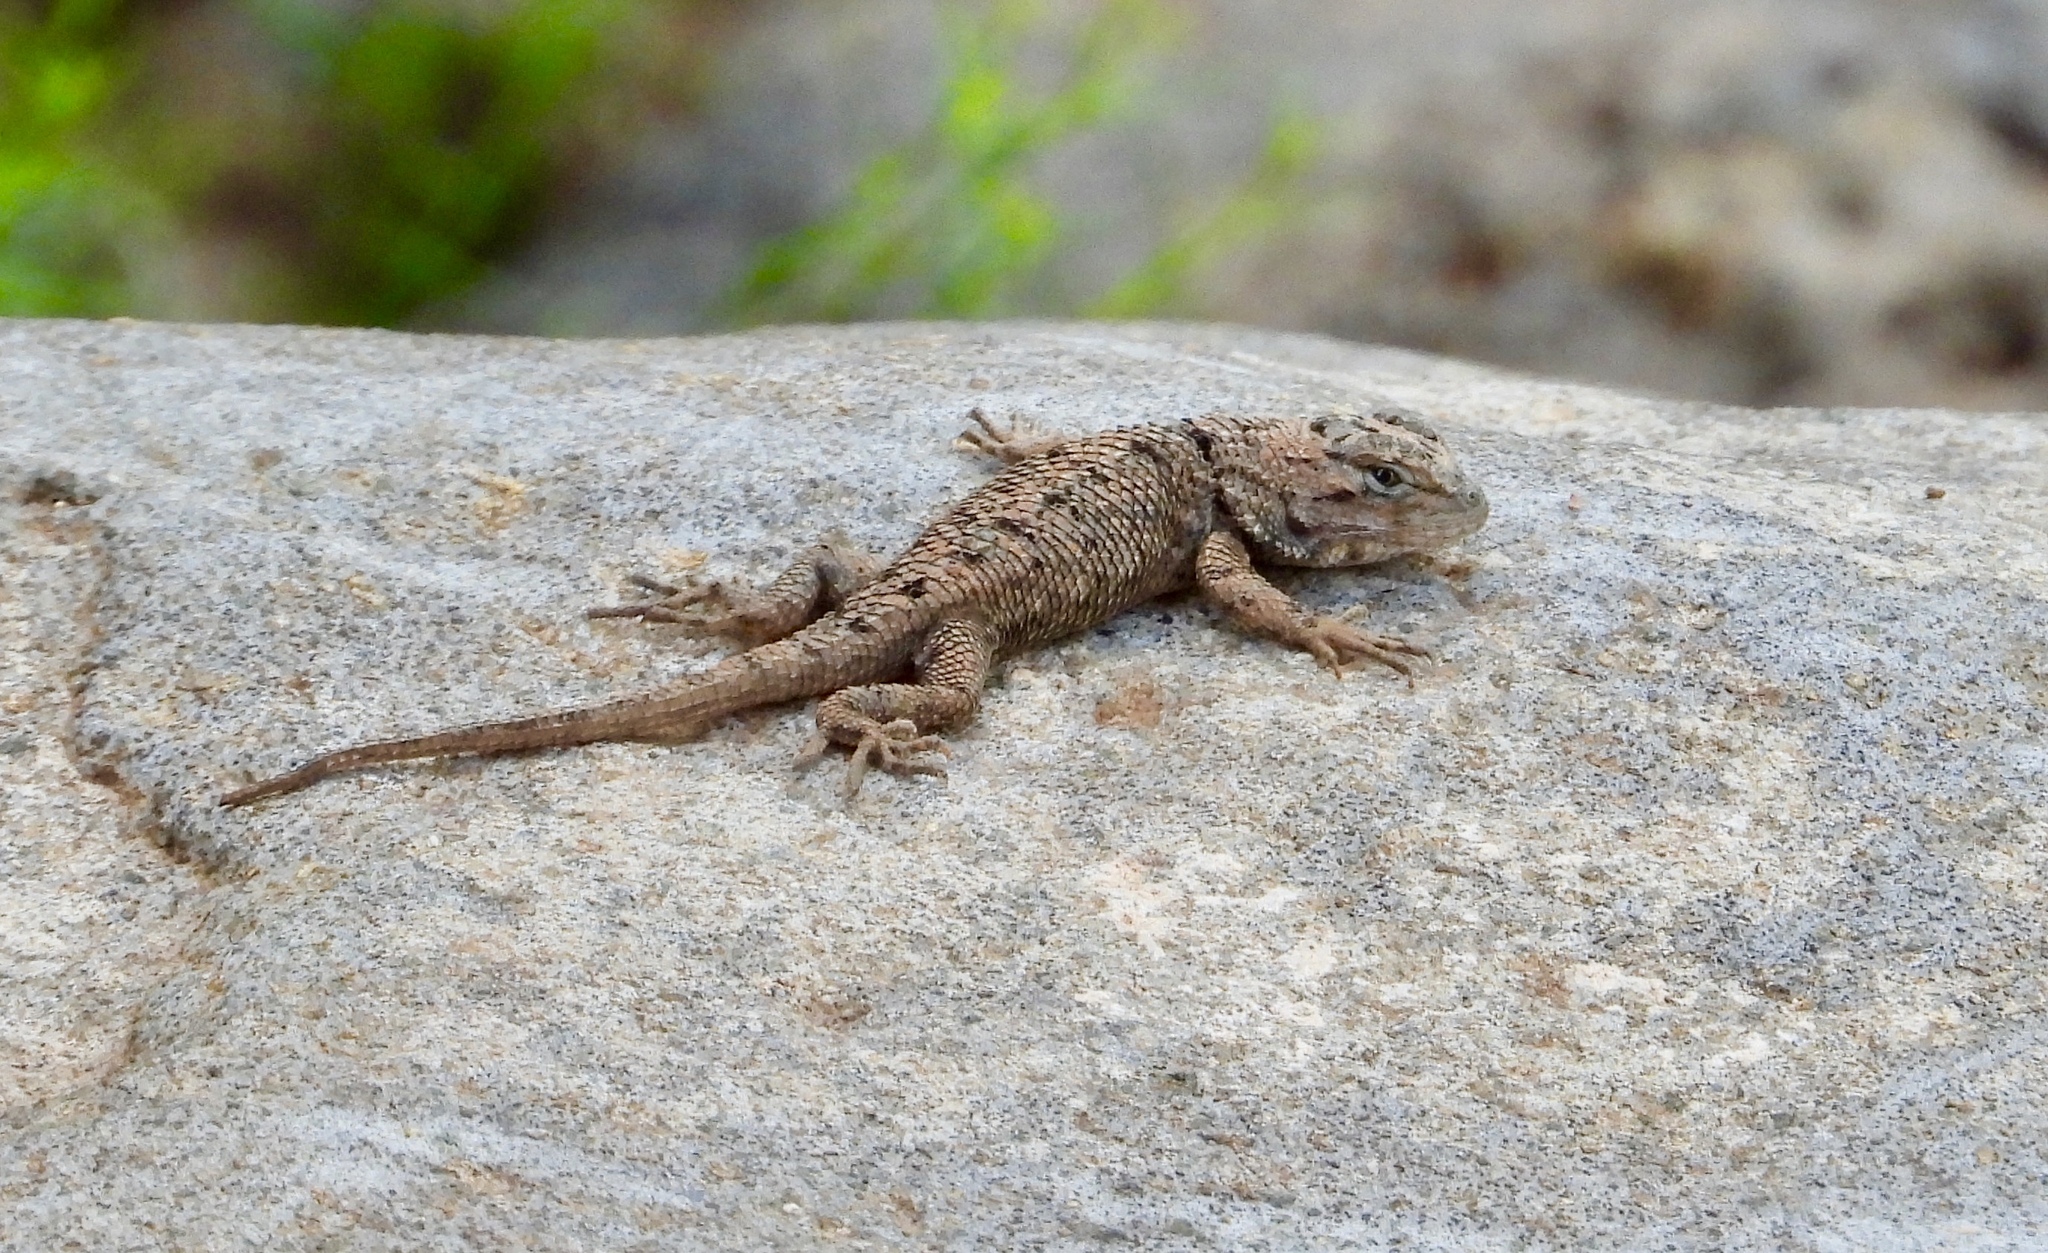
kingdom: Animalia
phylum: Chordata
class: Squamata
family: Phrynosomatidae
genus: Sceloporus
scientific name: Sceloporus clarkii
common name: Clark's spiny lizard
